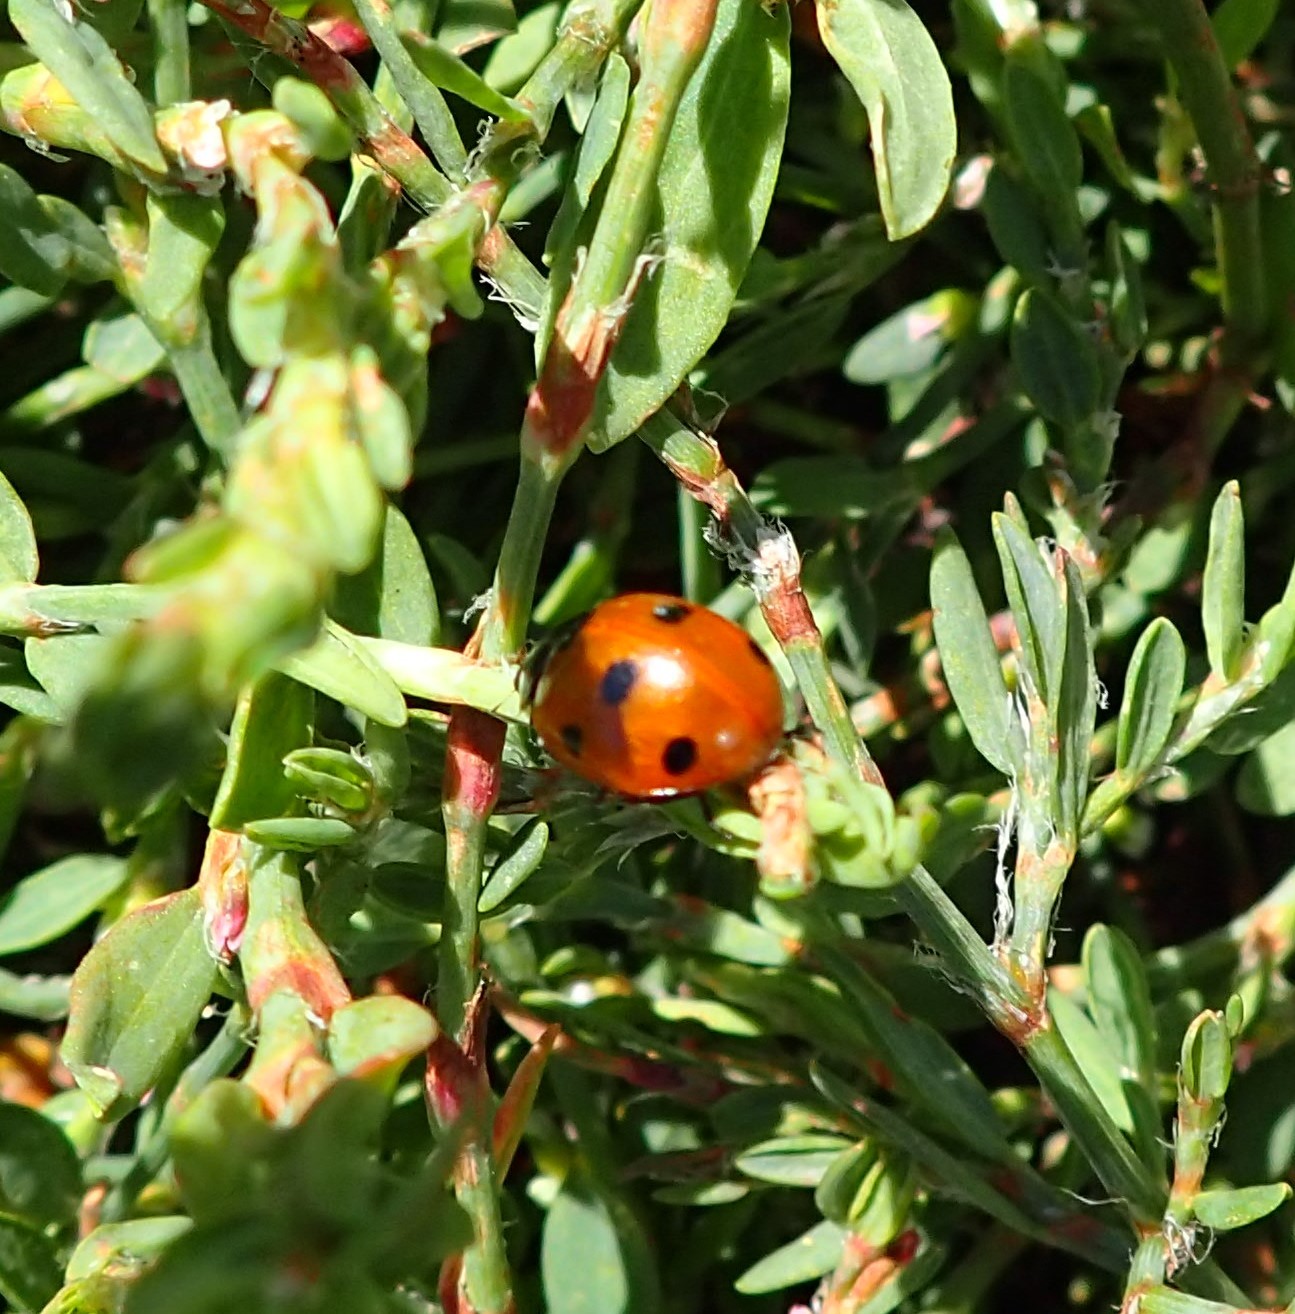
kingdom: Animalia
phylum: Arthropoda
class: Insecta
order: Coleoptera
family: Coccinellidae
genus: Coccinella
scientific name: Coccinella septempunctata
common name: Sevenspotted lady beetle
